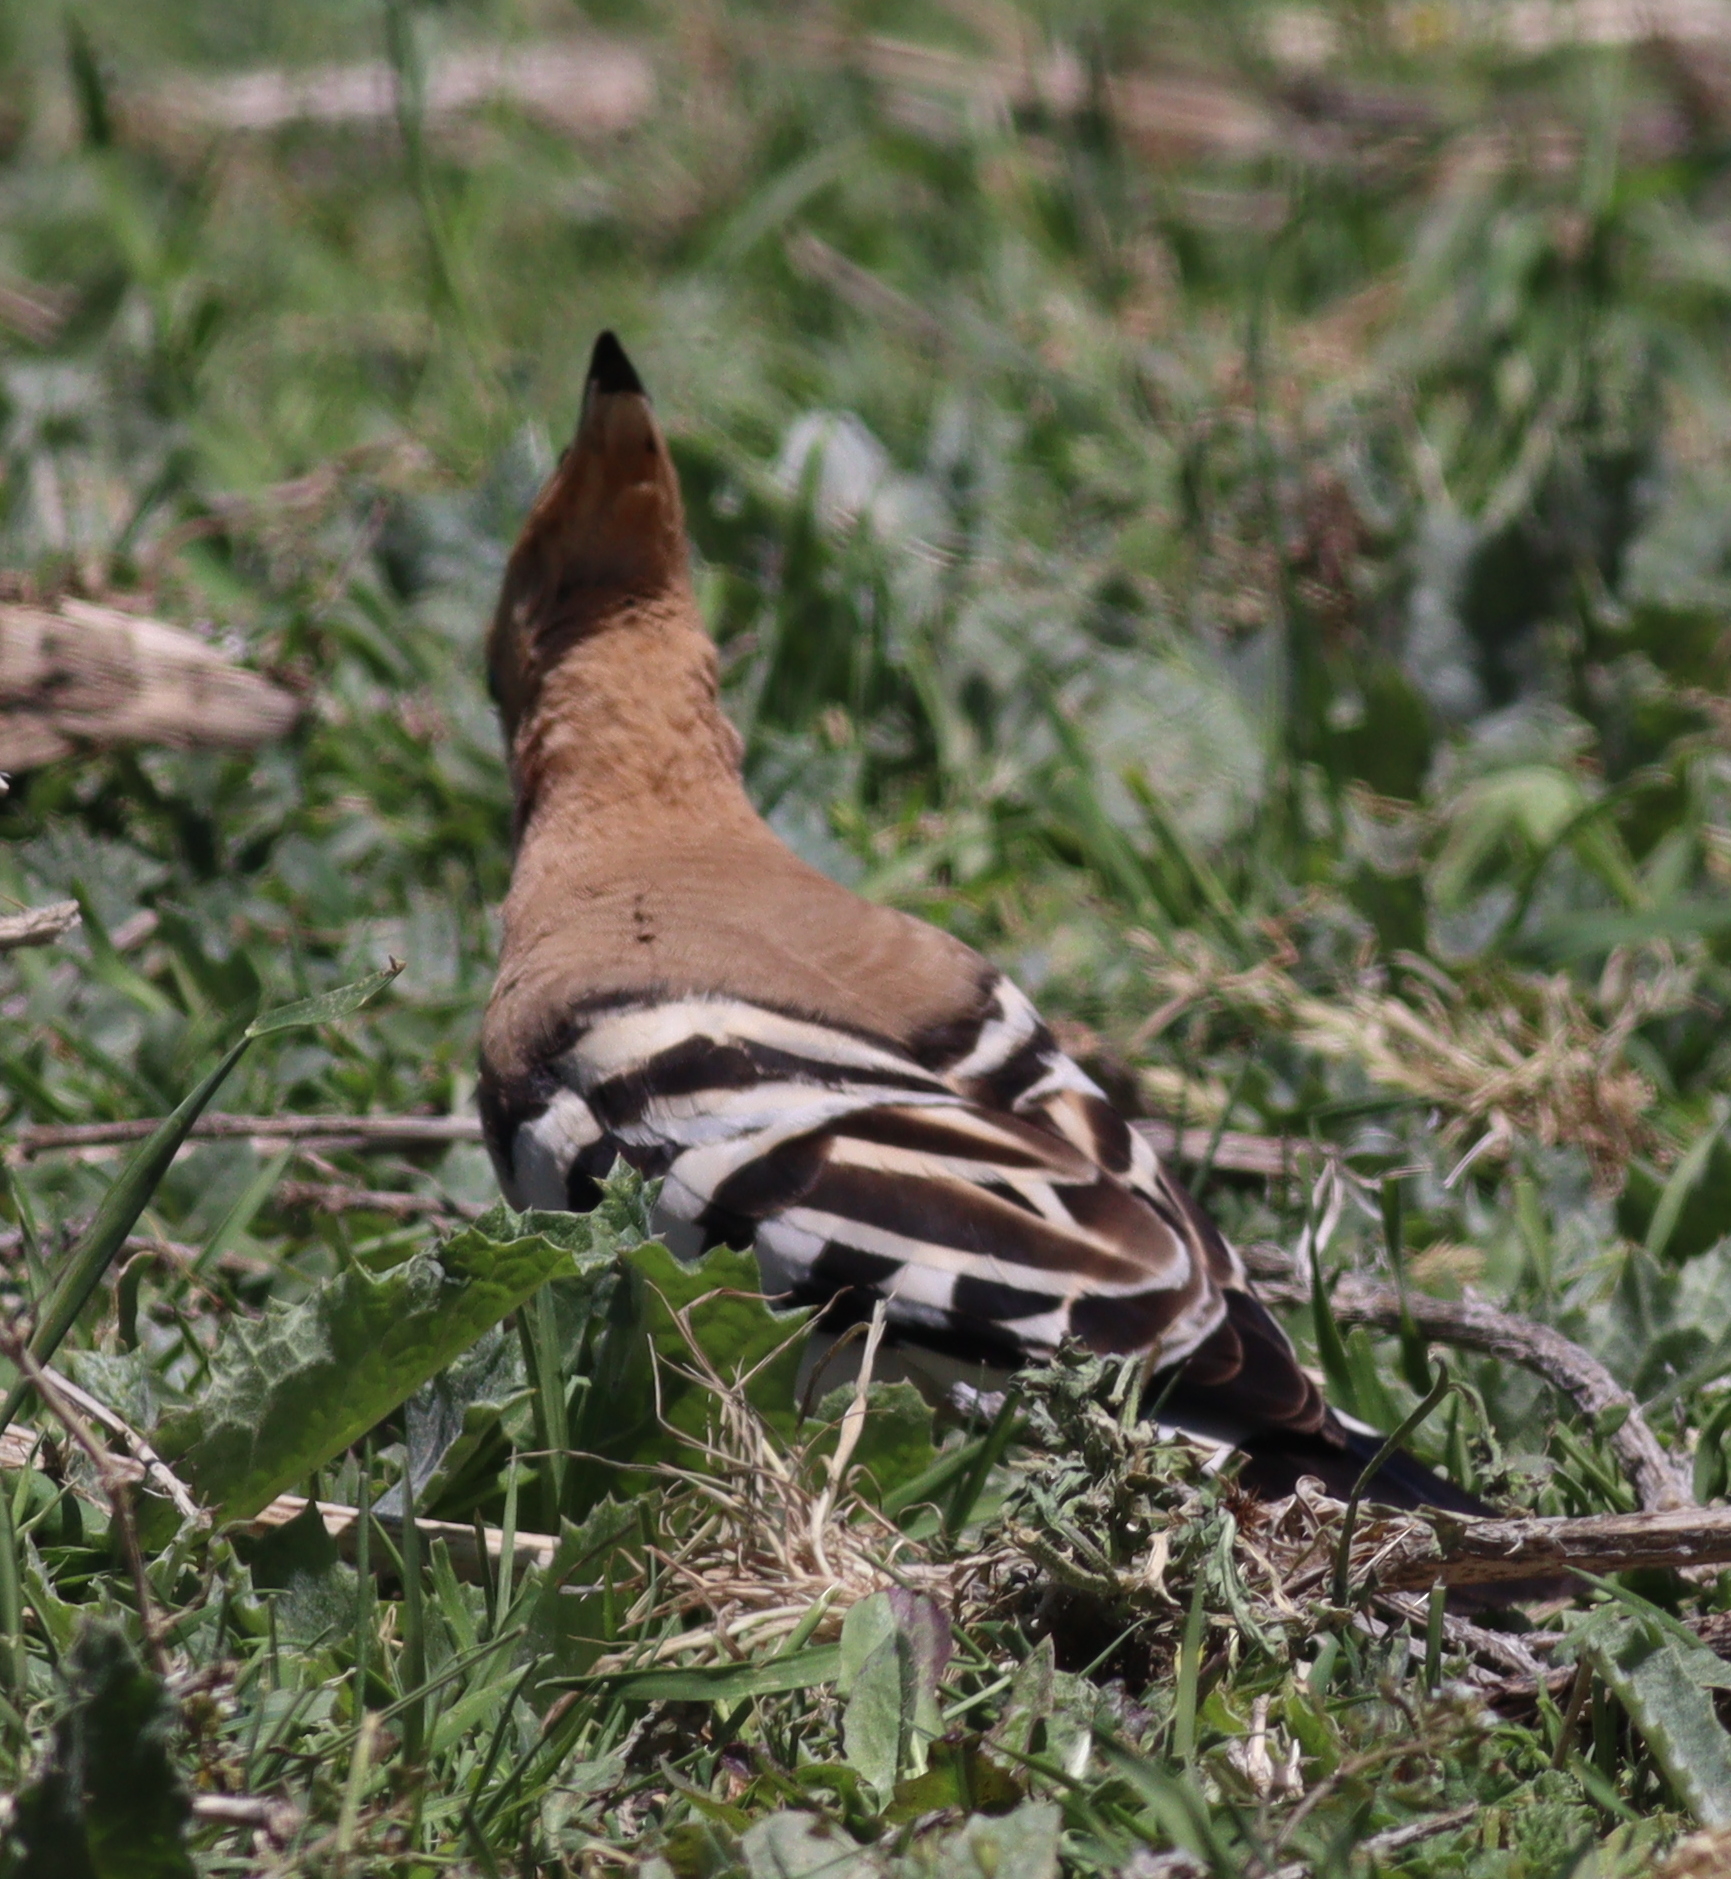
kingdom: Animalia
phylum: Chordata
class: Aves
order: Bucerotiformes
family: Upupidae
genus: Upupa
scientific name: Upupa epops
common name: Eurasian hoopoe
